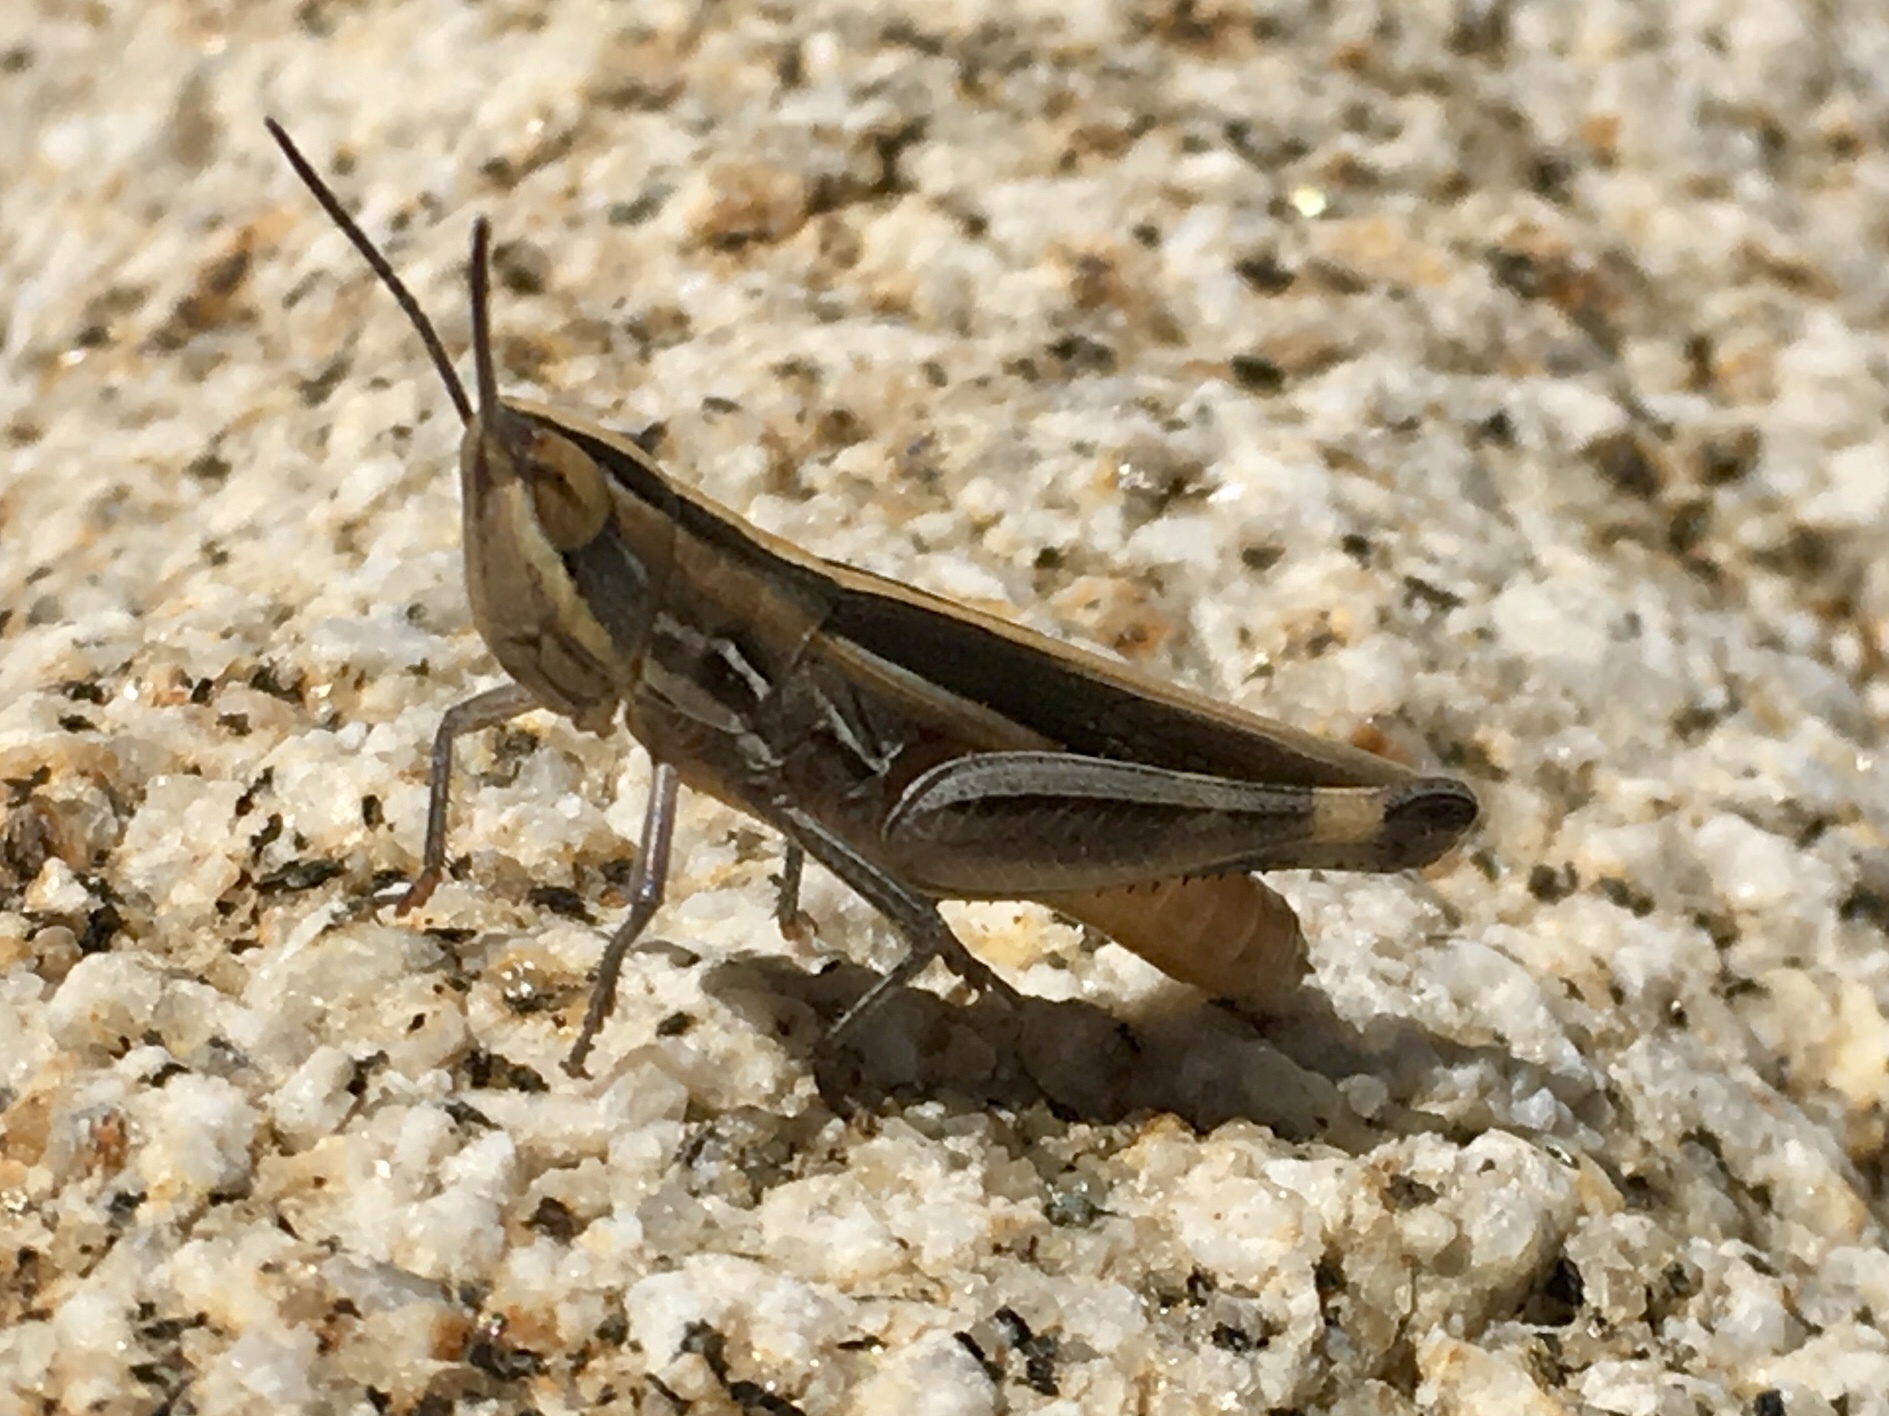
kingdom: Animalia
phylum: Arthropoda
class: Insecta
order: Orthoptera
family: Acrididae
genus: Amphitornus
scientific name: Amphitornus coloradus
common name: Striped grasshopper
